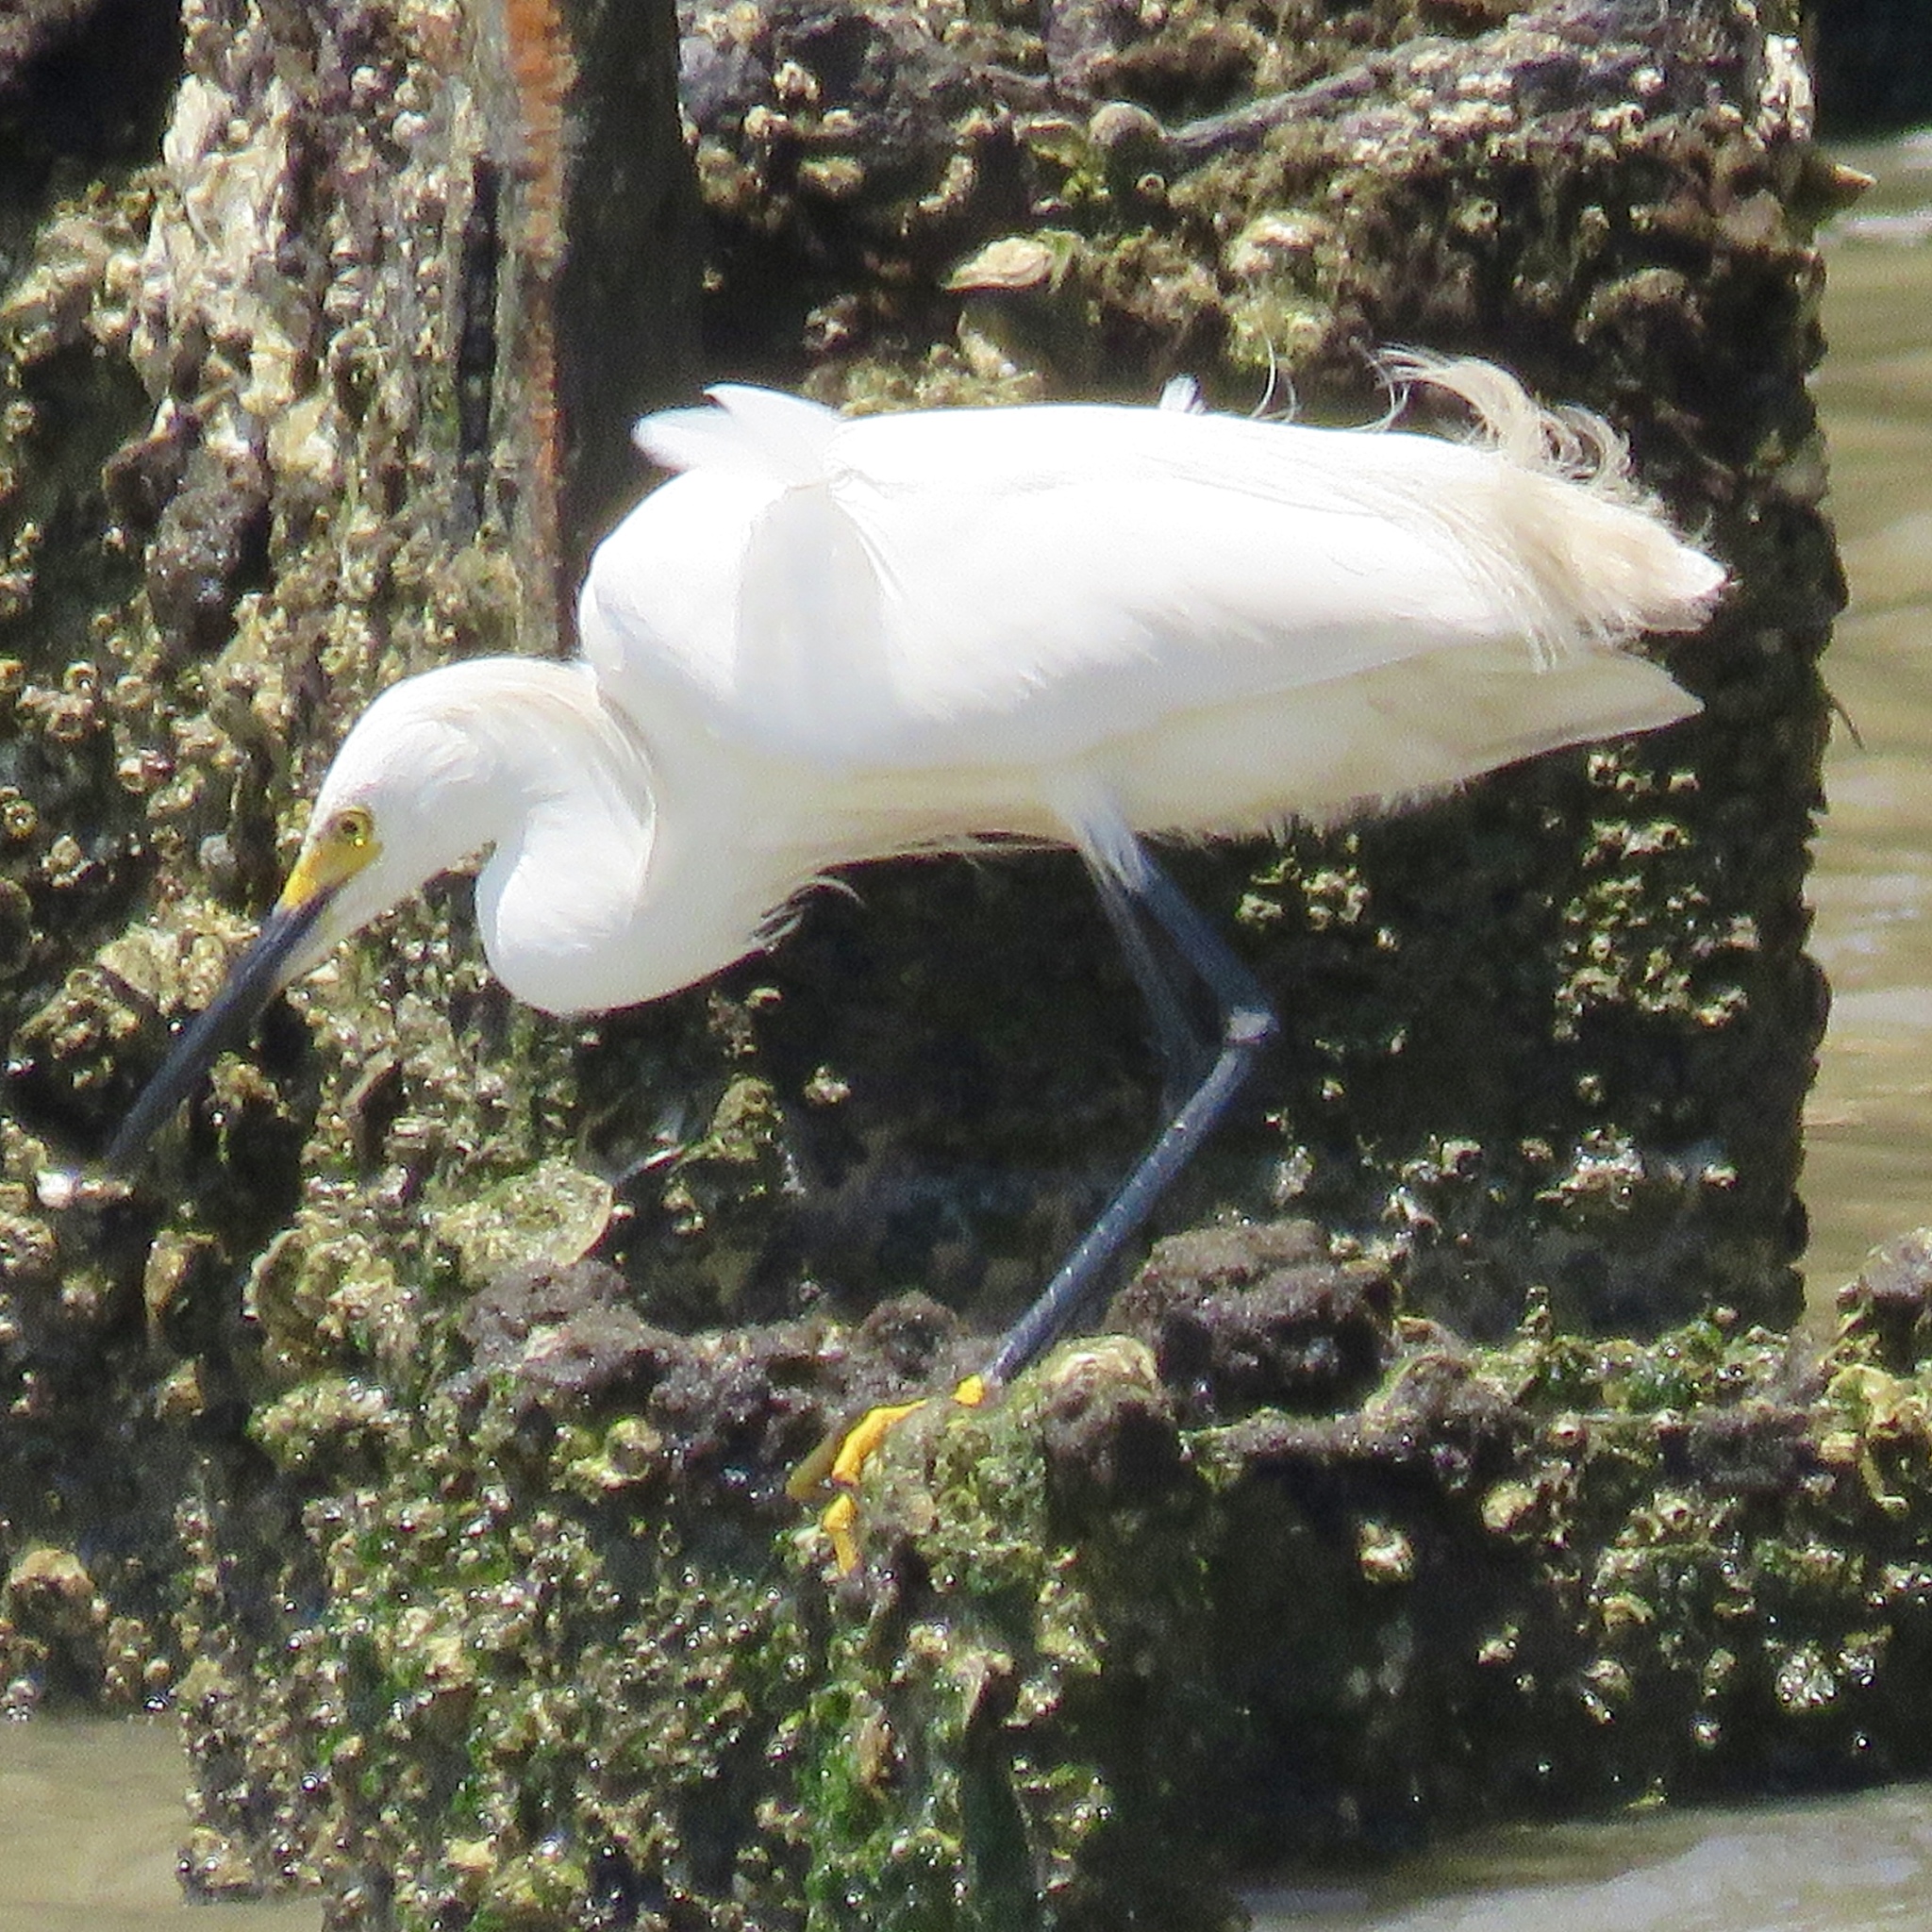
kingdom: Animalia
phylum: Chordata
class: Aves
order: Pelecaniformes
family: Ardeidae
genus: Egretta
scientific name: Egretta thula
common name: Snowy egret
